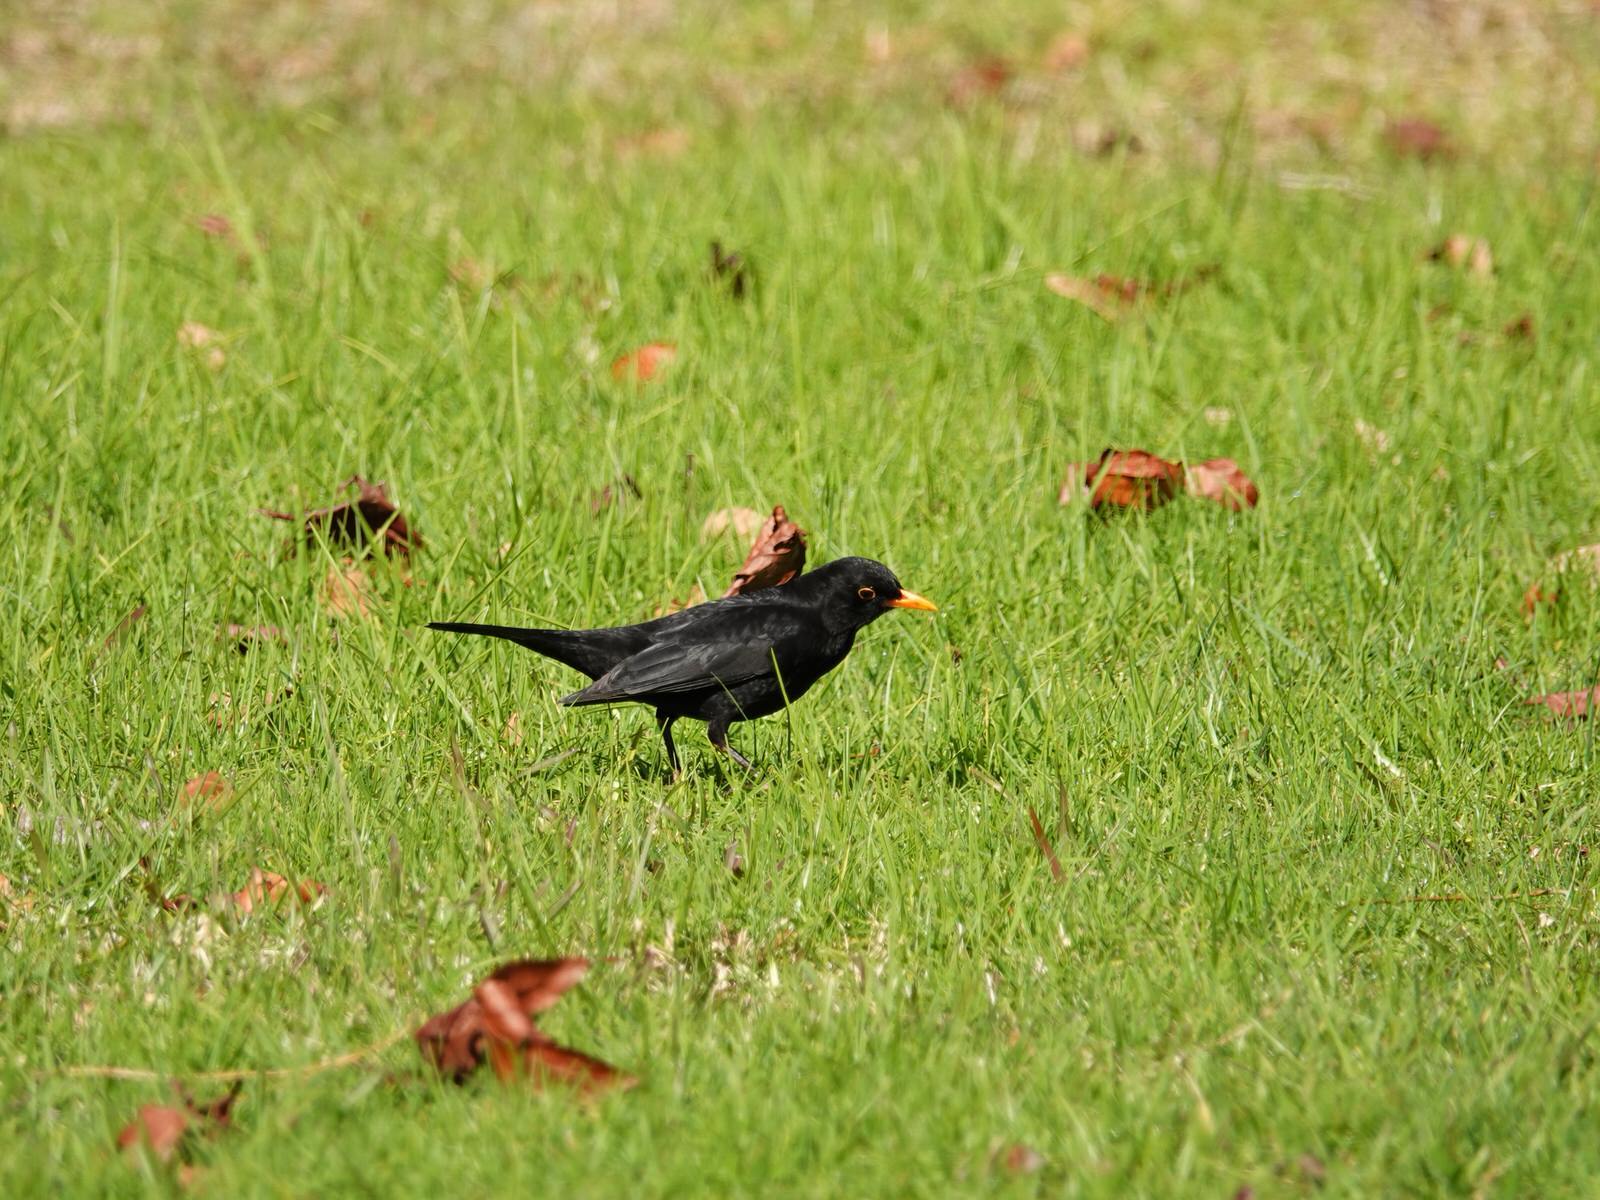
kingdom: Animalia
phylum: Chordata
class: Aves
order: Passeriformes
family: Turdidae
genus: Turdus
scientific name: Turdus merula
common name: Common blackbird
